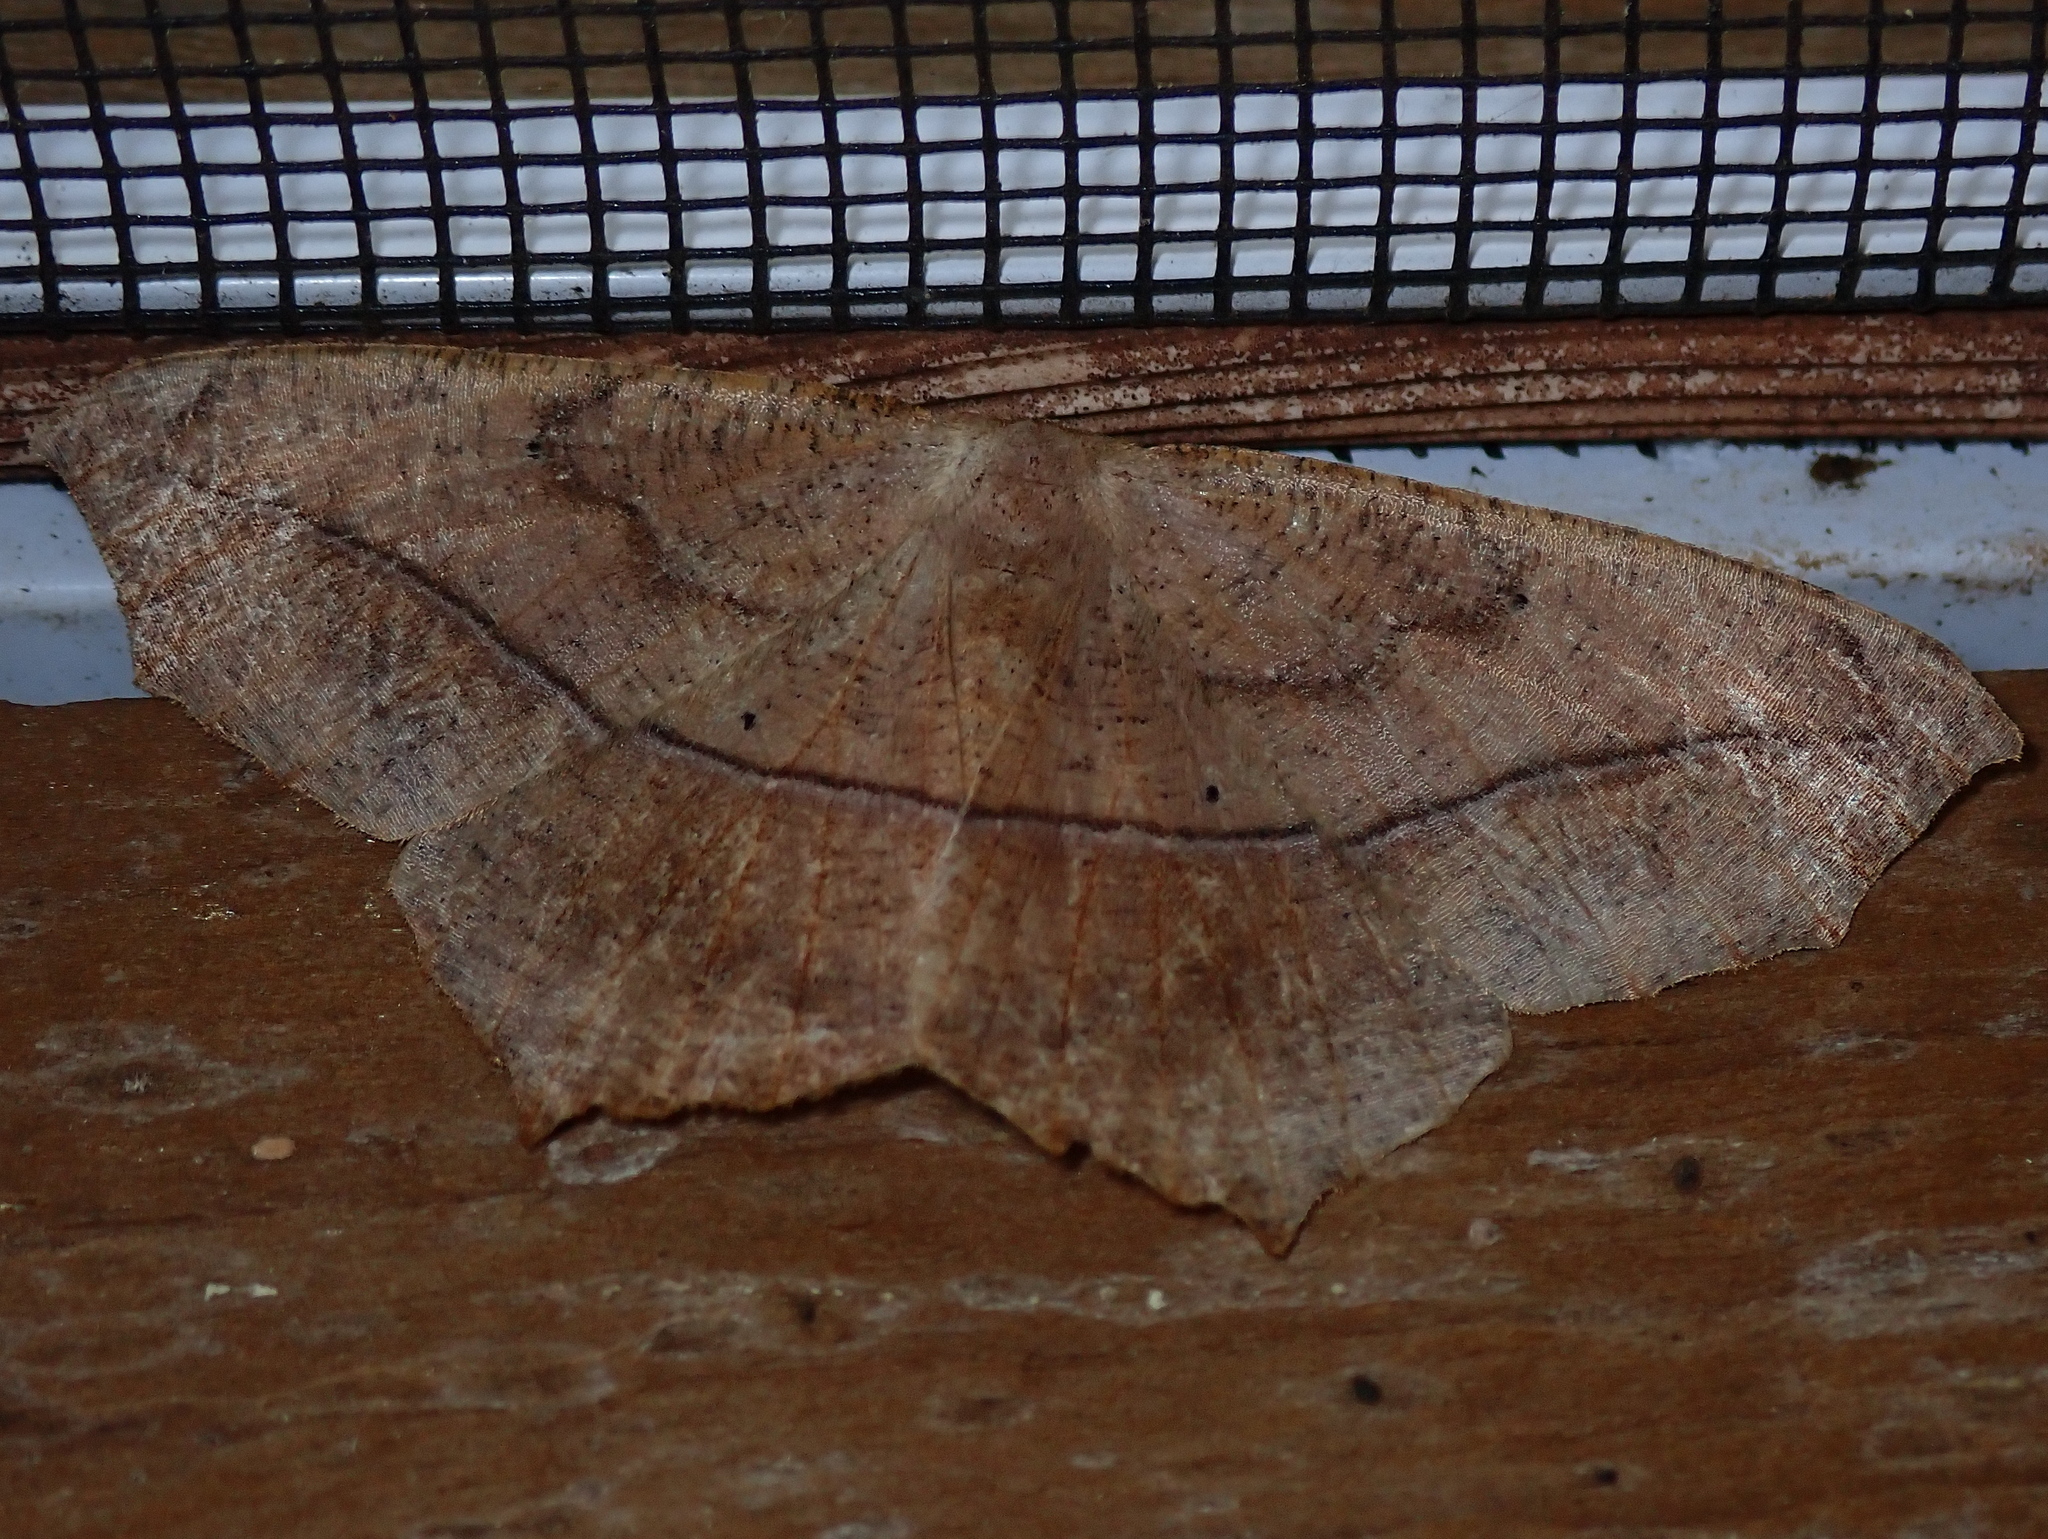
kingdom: Animalia
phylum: Arthropoda
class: Insecta
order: Lepidoptera
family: Geometridae
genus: Prochoerodes
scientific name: Prochoerodes lineola
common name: Large maple spanworm
